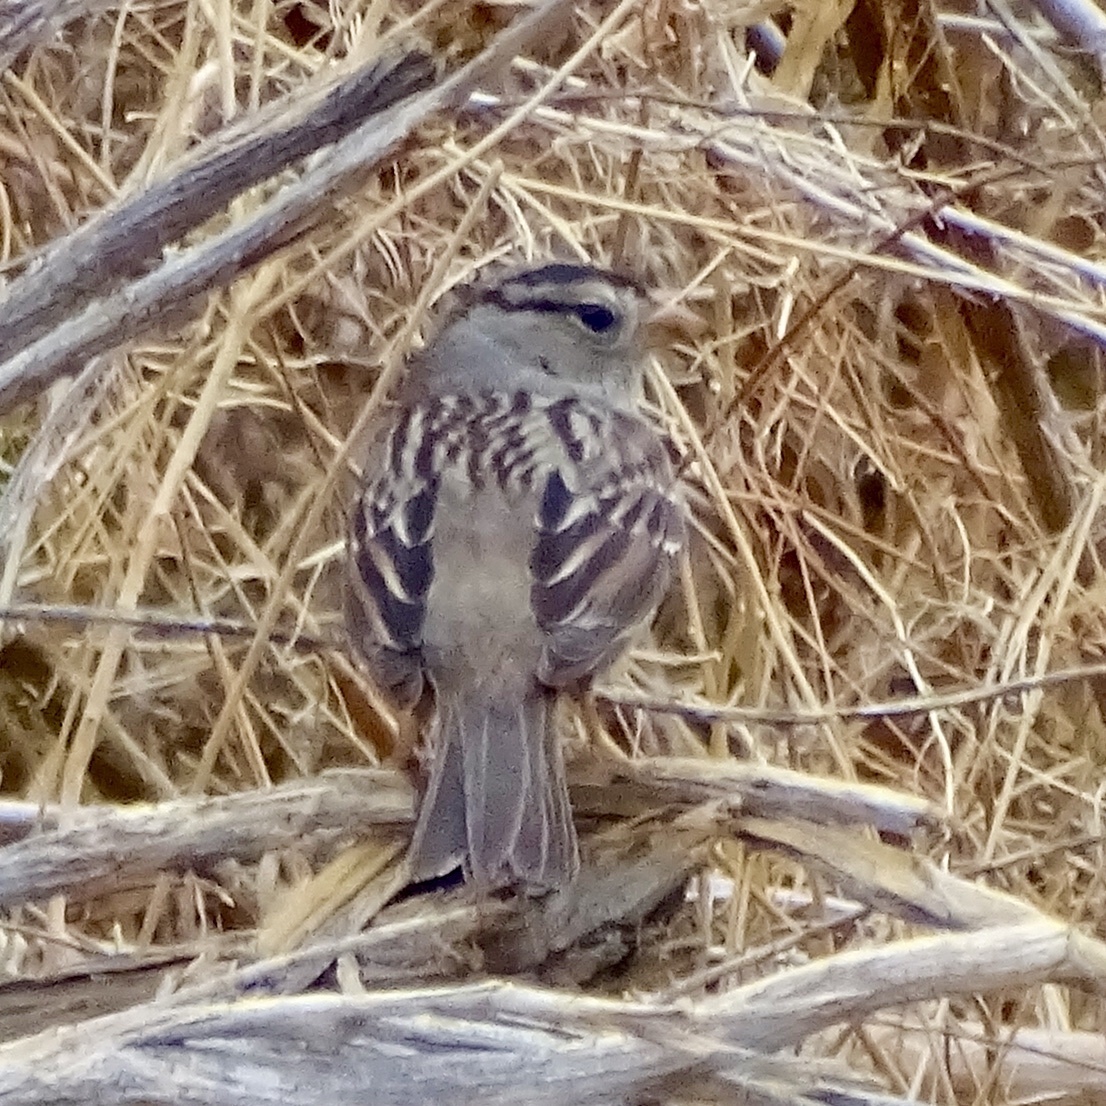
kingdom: Animalia
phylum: Chordata
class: Aves
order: Passeriformes
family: Passerellidae
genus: Zonotrichia
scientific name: Zonotrichia leucophrys
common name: White-crowned sparrow
